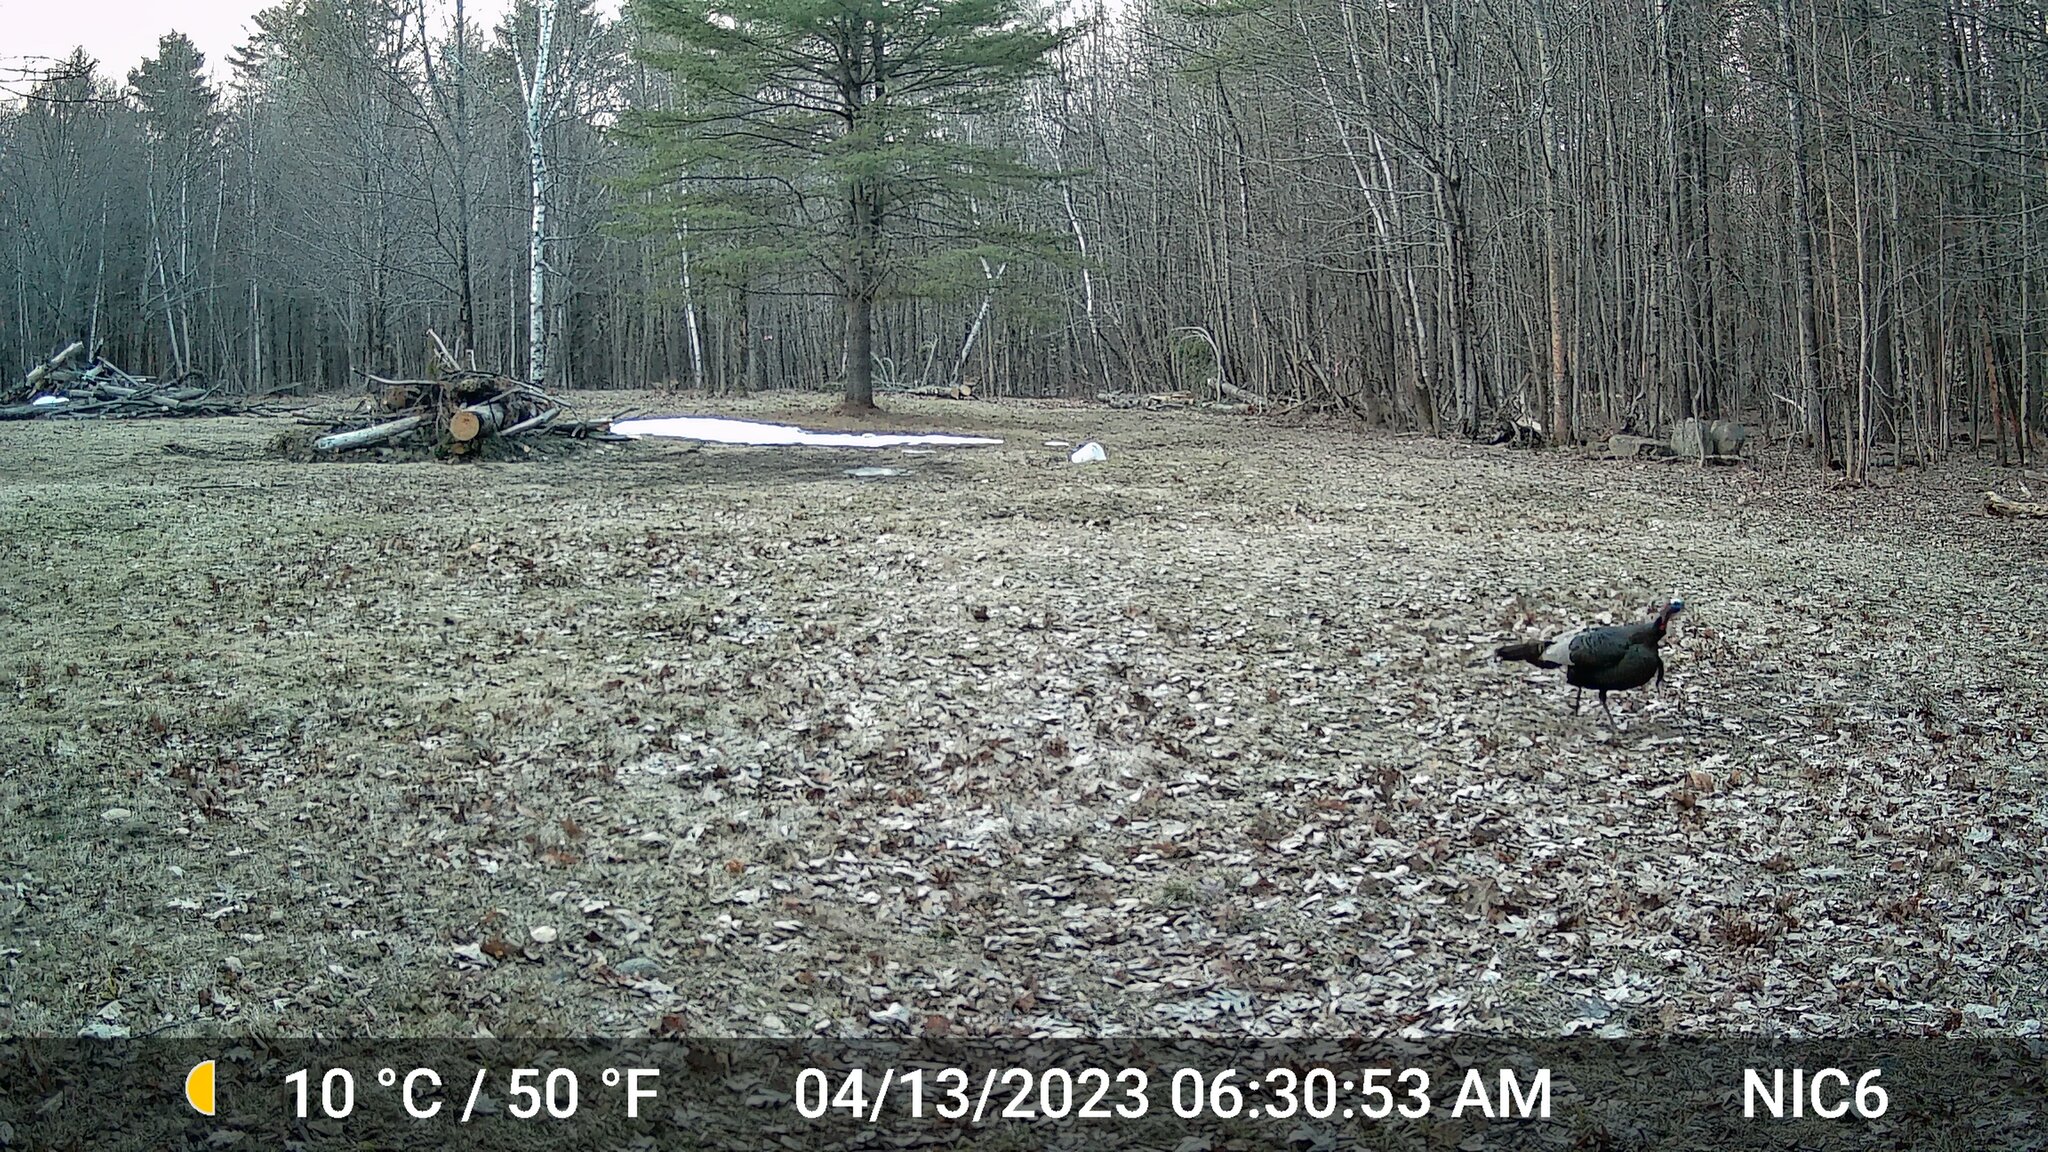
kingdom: Animalia
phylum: Chordata
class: Aves
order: Galliformes
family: Phasianidae
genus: Meleagris
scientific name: Meleagris gallopavo
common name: Wild turkey
